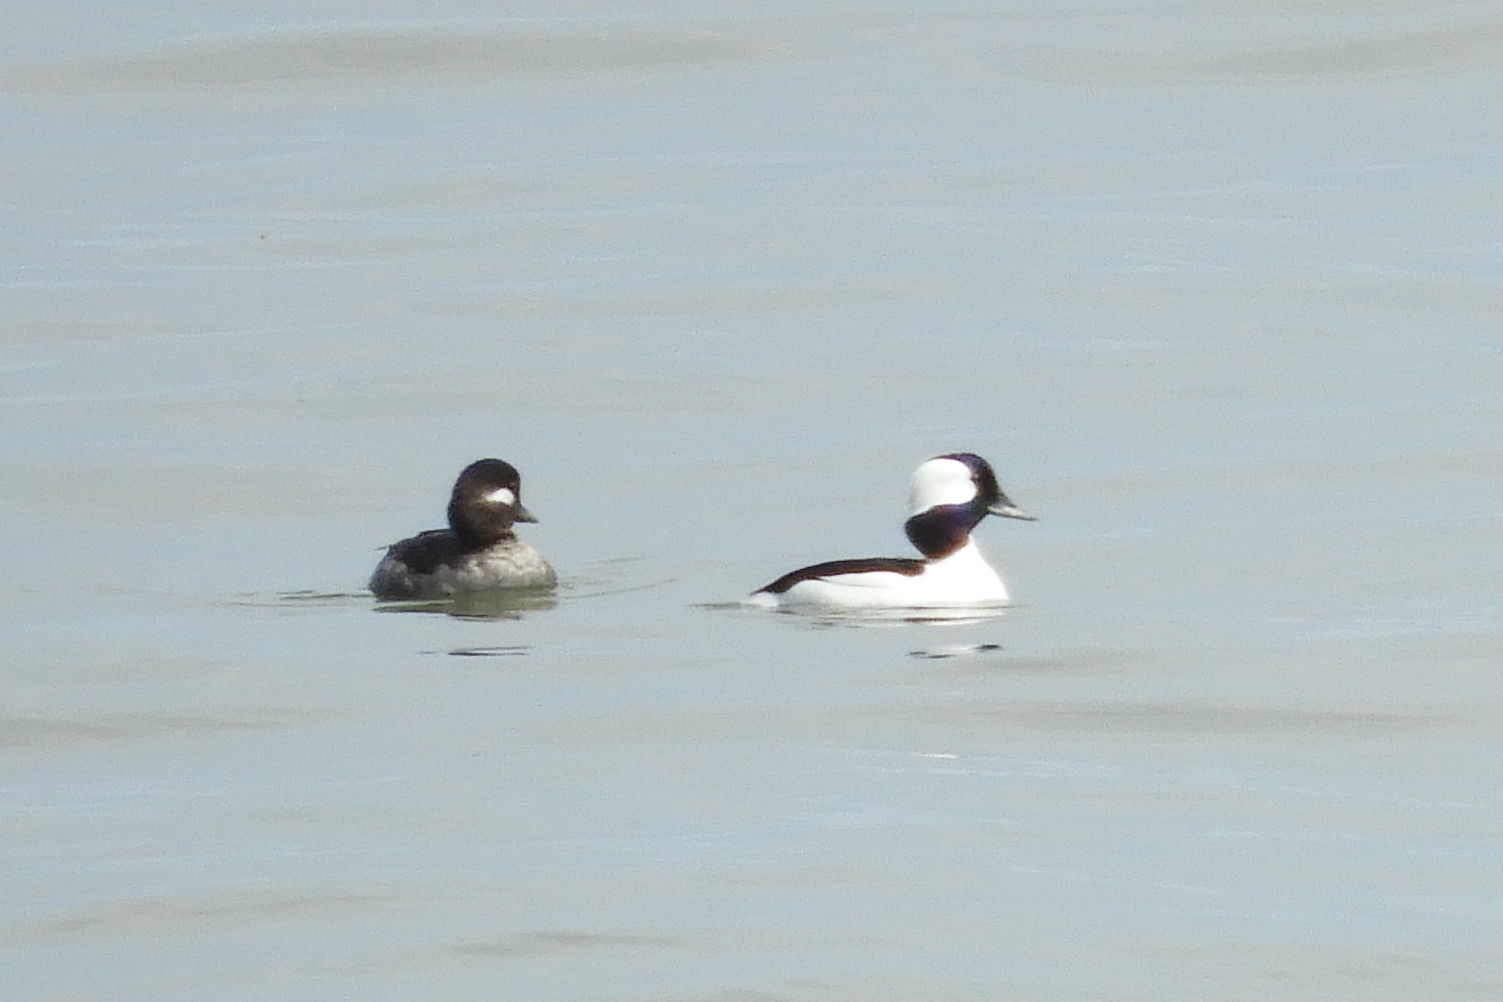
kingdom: Animalia
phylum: Chordata
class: Aves
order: Anseriformes
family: Anatidae
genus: Bucephala
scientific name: Bucephala albeola
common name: Bufflehead
